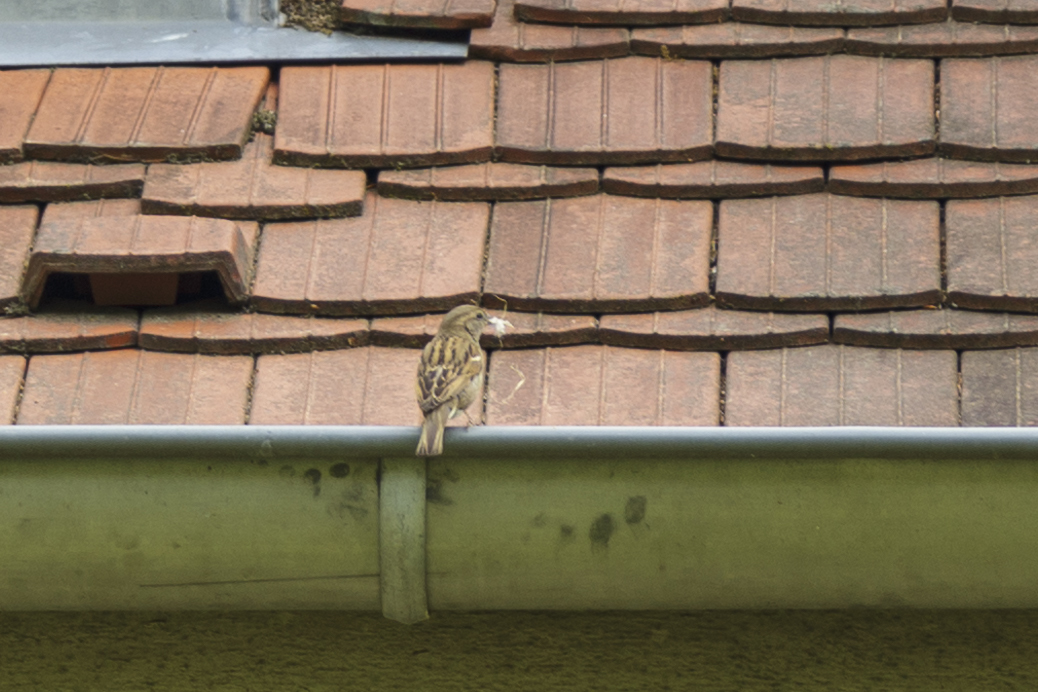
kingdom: Animalia
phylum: Chordata
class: Aves
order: Passeriformes
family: Passeridae
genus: Passer
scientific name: Passer domesticus
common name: House sparrow
